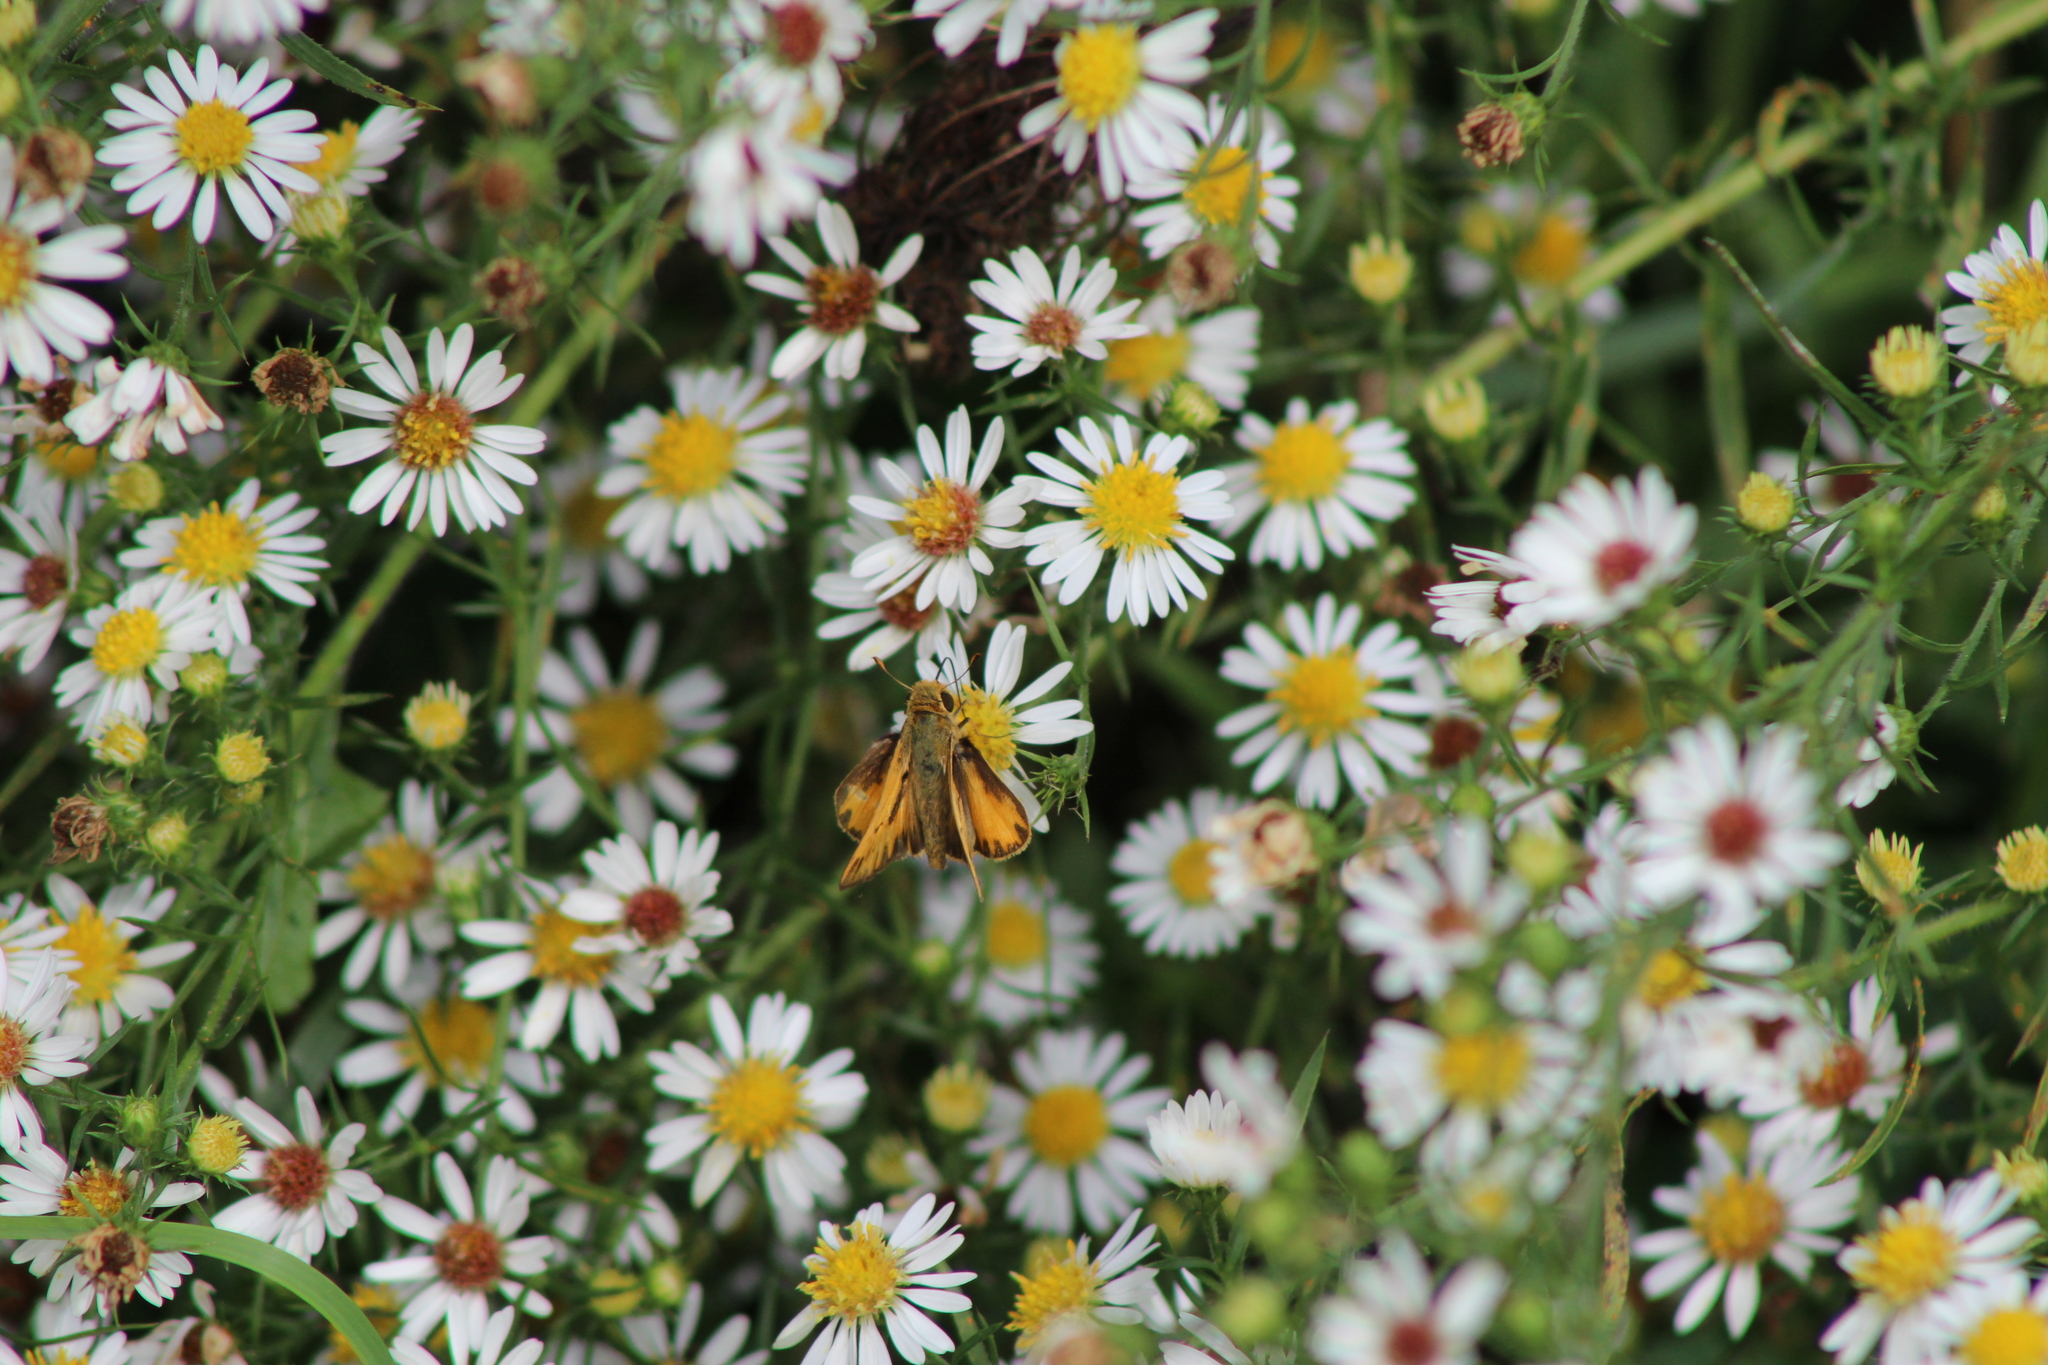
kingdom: Animalia
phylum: Arthropoda
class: Insecta
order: Lepidoptera
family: Hesperiidae
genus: Hylephila
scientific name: Hylephila phyleus
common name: Fiery skipper
